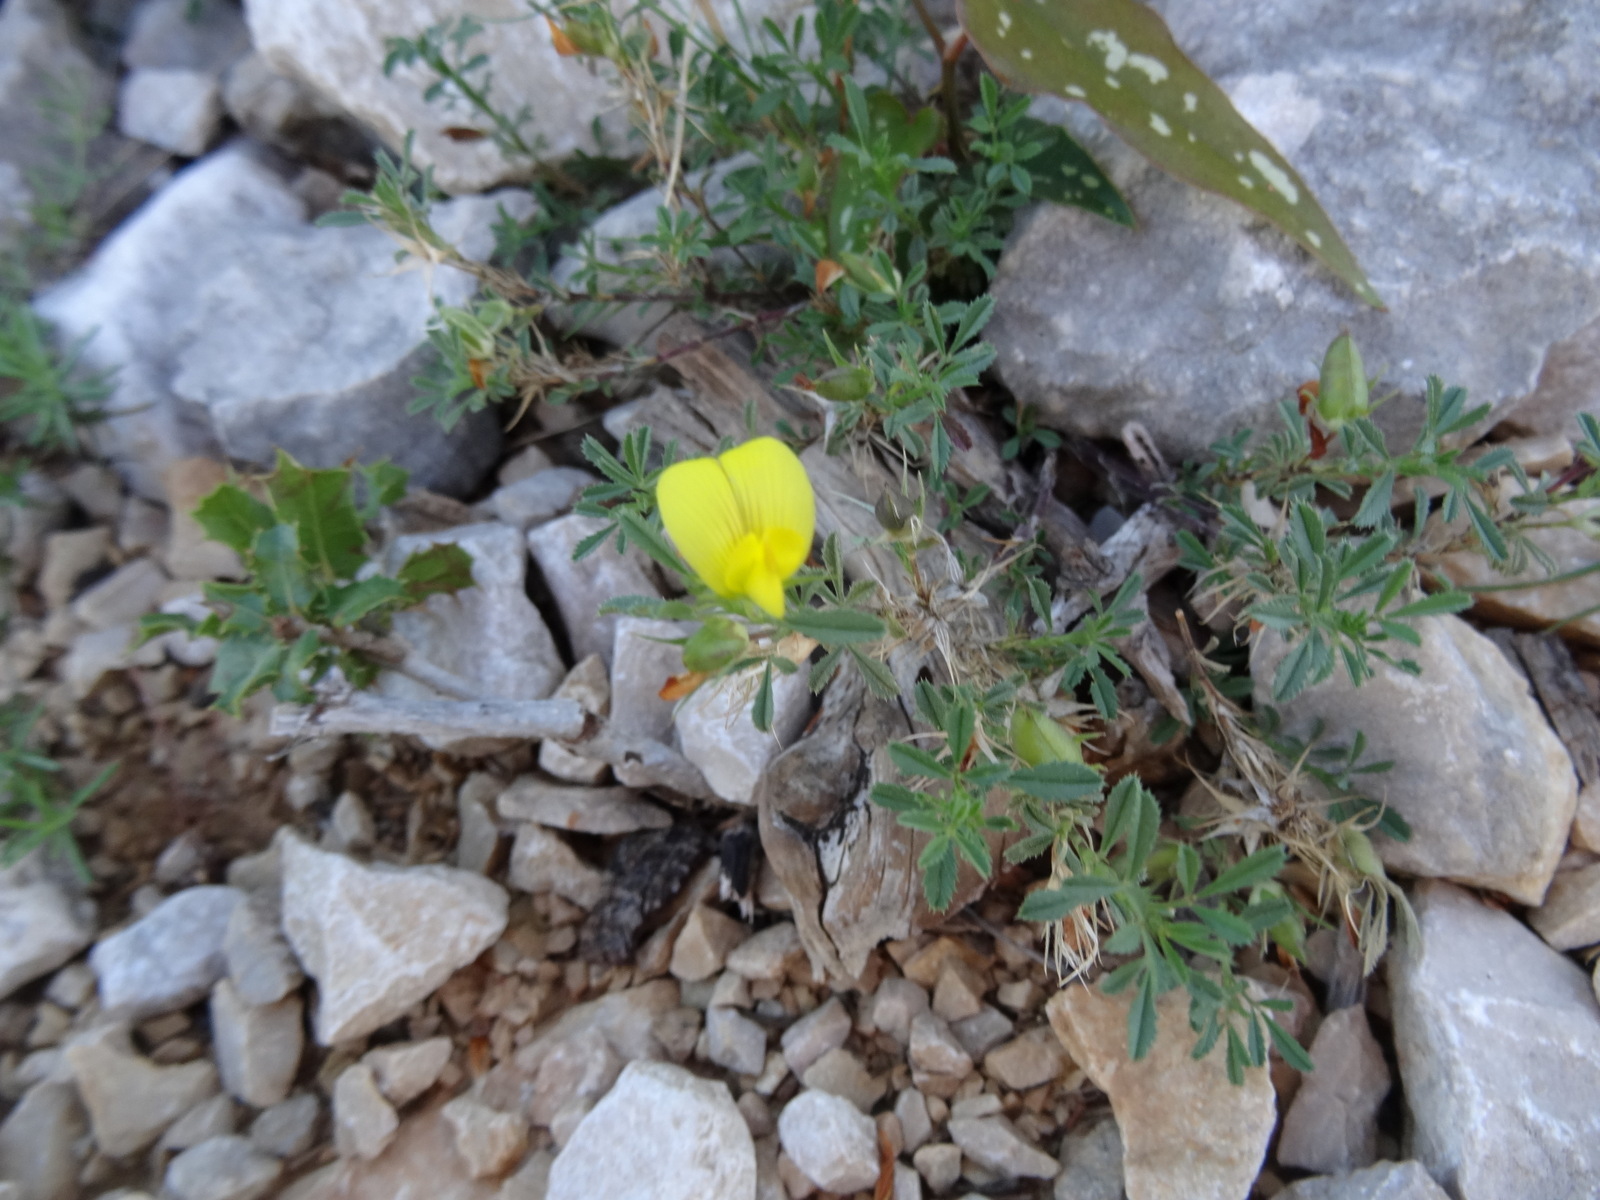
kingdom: Plantae
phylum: Tracheophyta
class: Magnoliopsida
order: Fabales
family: Fabaceae
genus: Ononis
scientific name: Ononis minutissima
